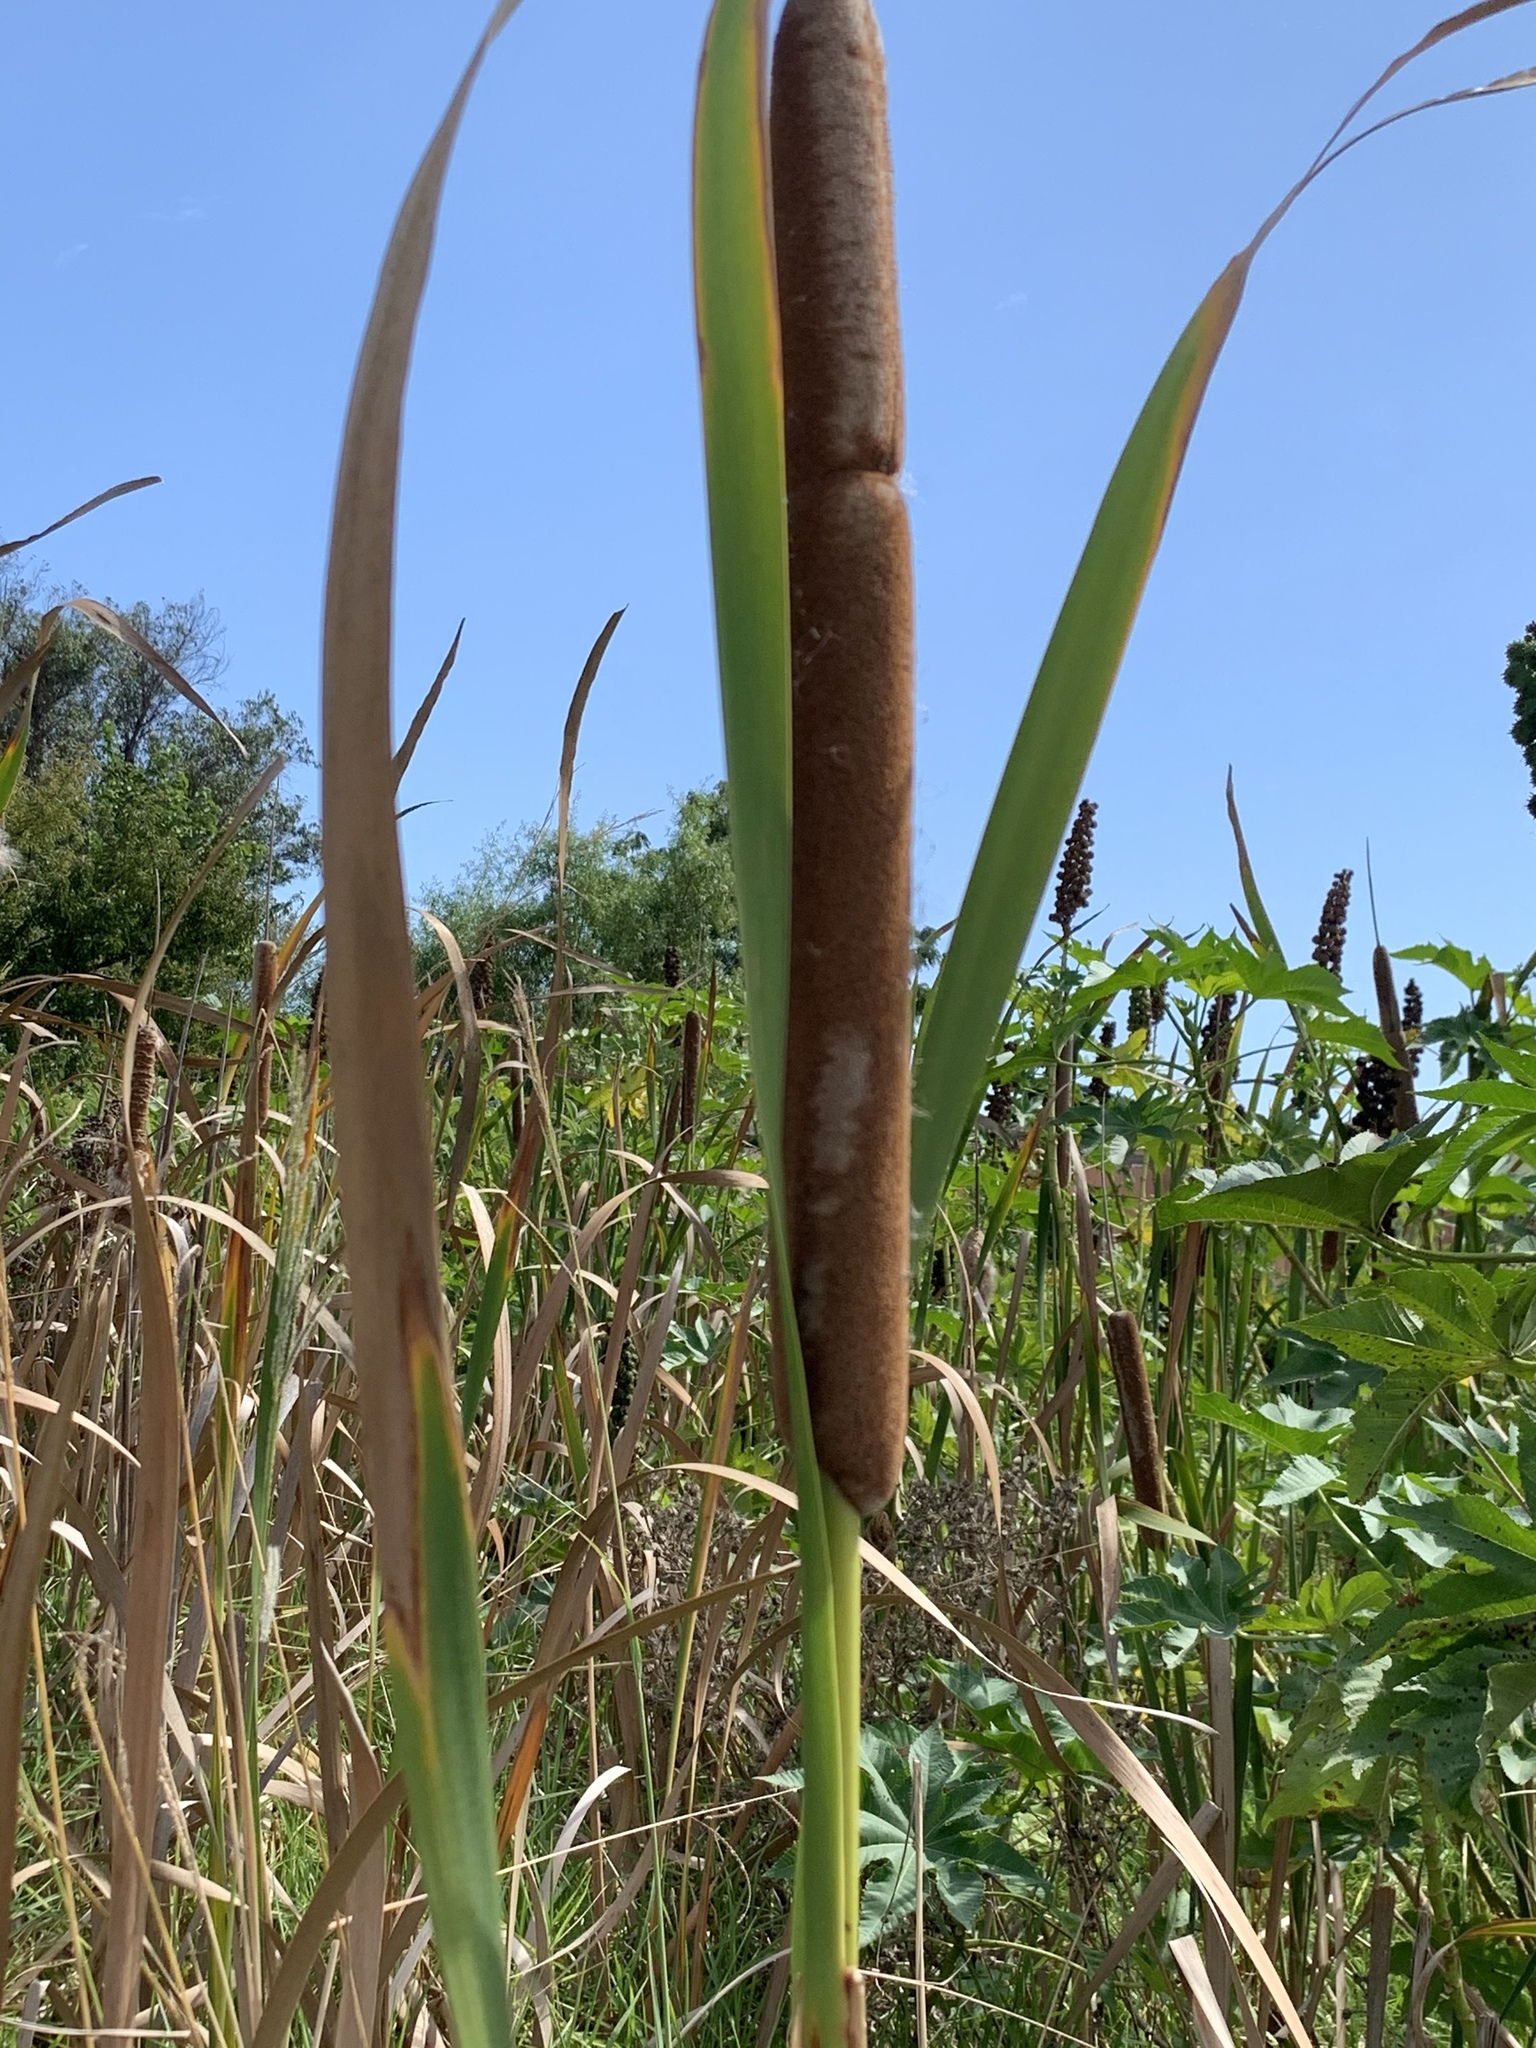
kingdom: Plantae
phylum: Tracheophyta
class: Liliopsida
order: Poales
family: Typhaceae
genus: Typha
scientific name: Typha capensis
